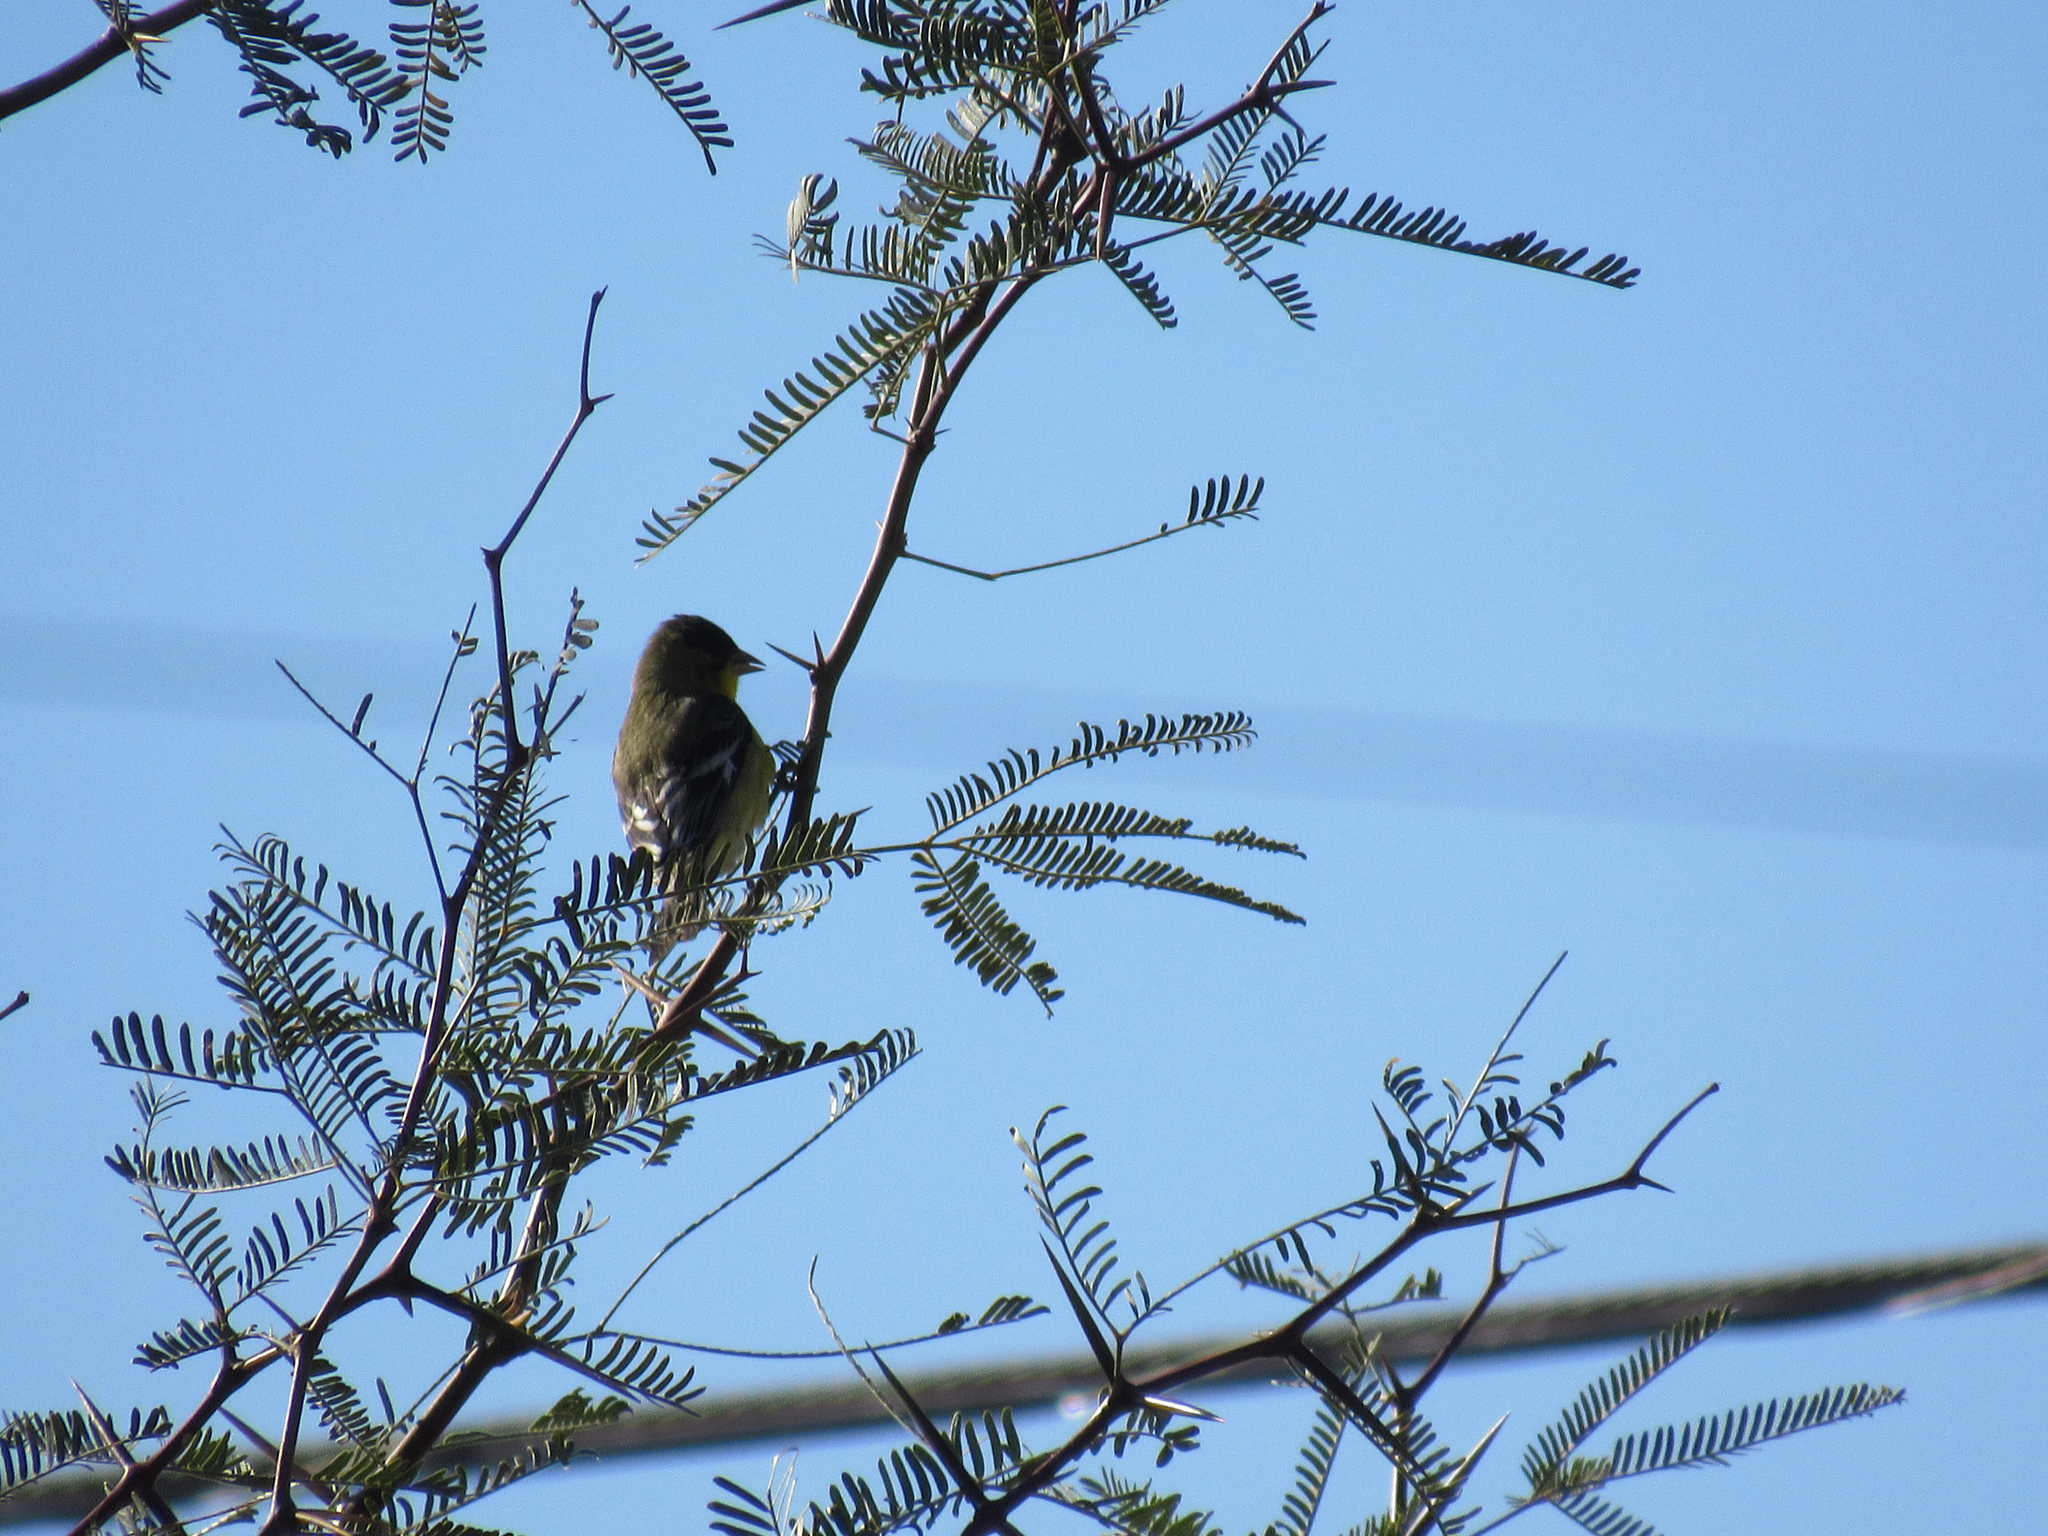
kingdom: Animalia
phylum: Chordata
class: Aves
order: Passeriformes
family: Fringillidae
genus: Spinus
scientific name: Spinus psaltria
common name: Lesser goldfinch
